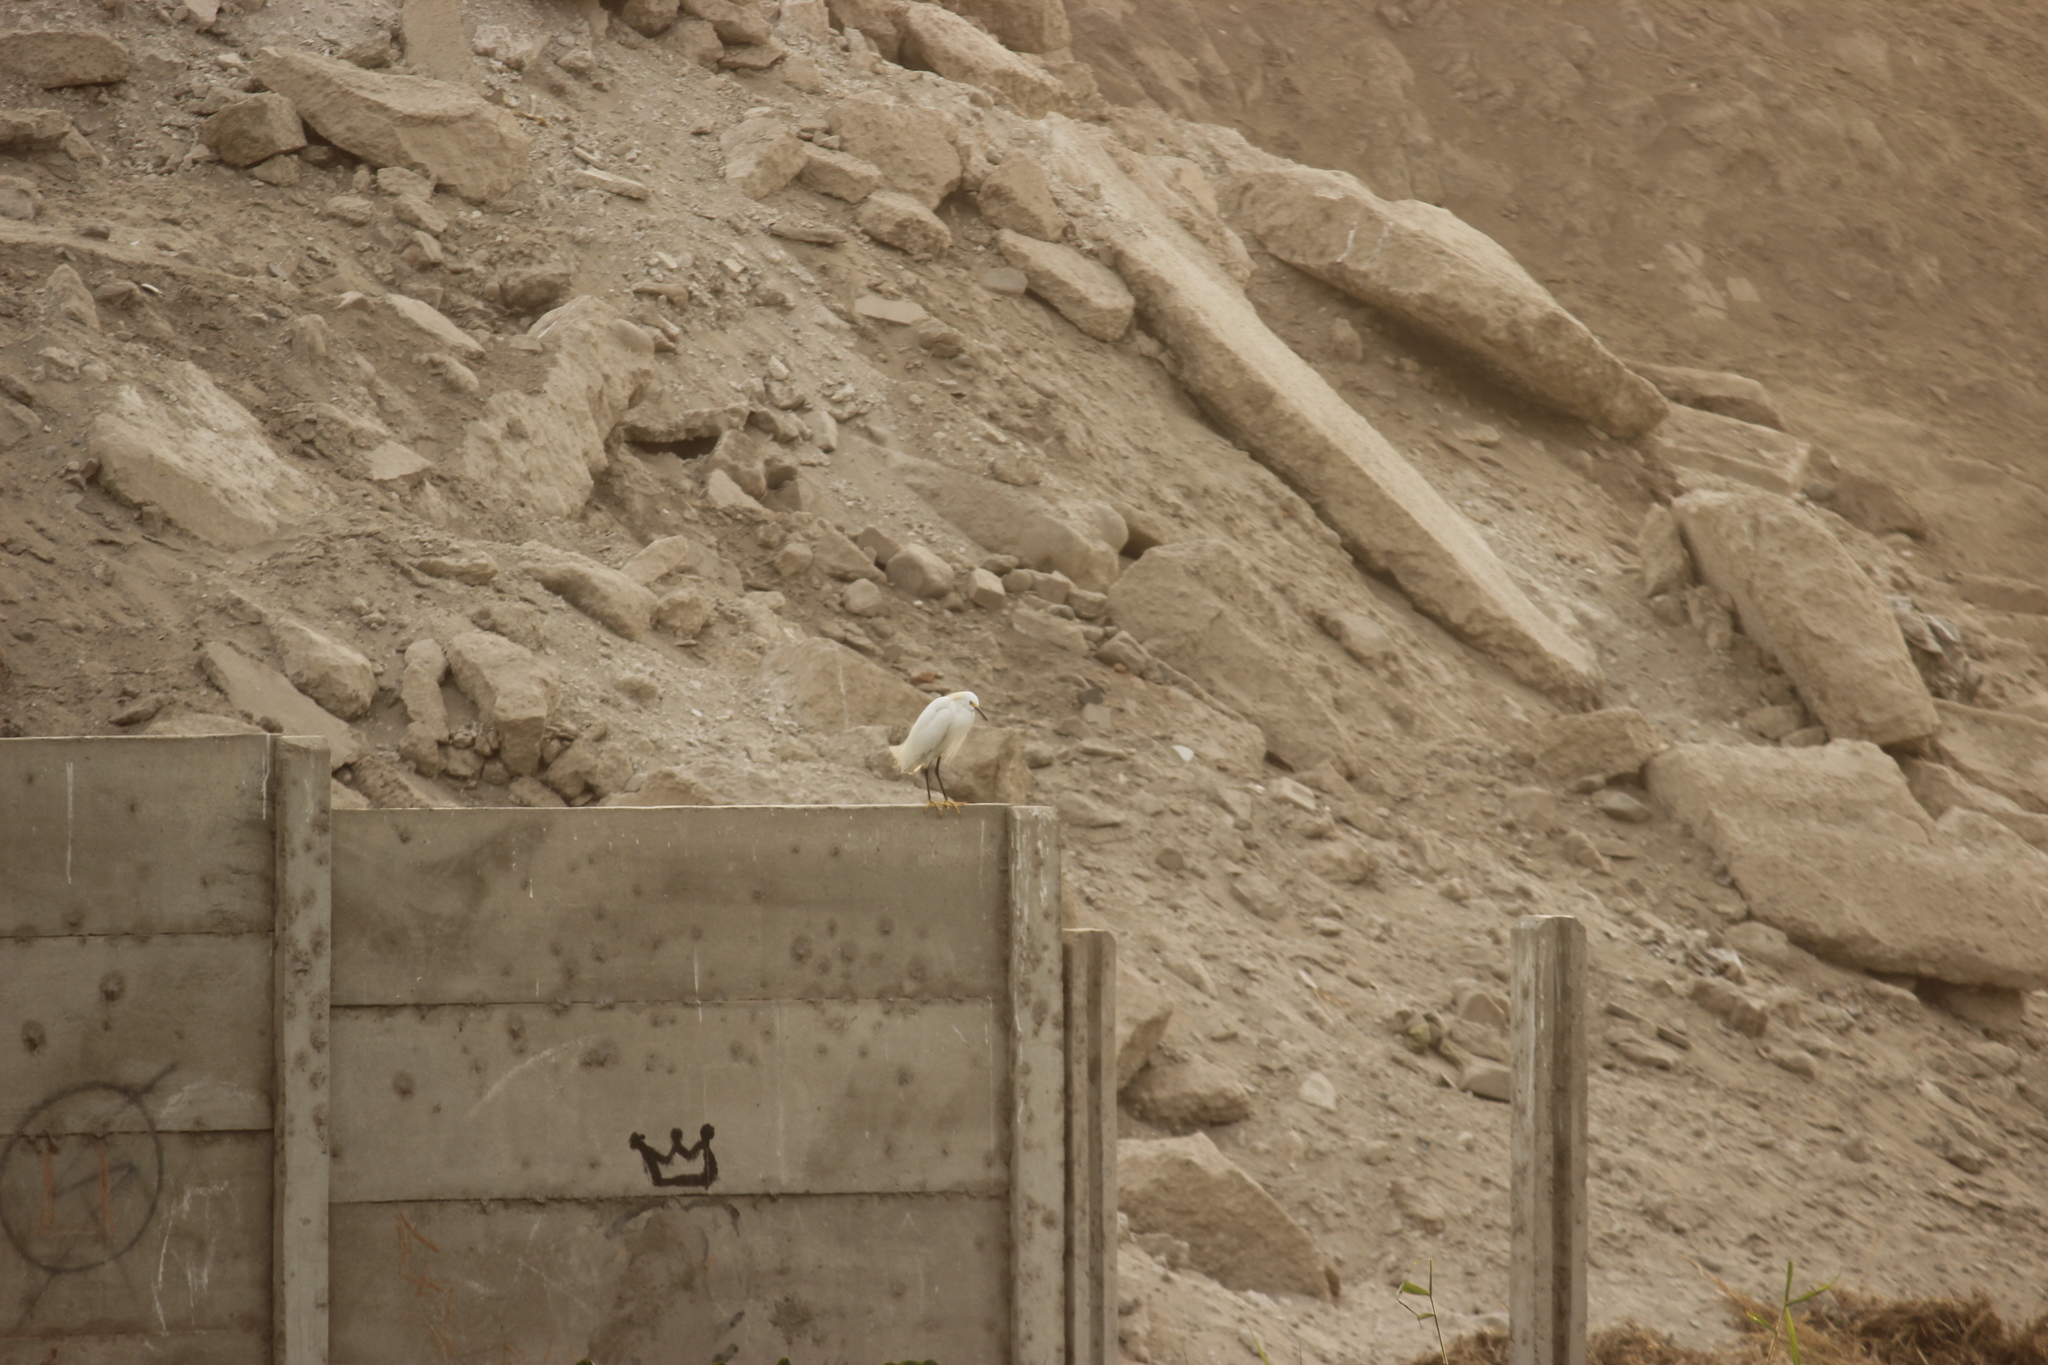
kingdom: Animalia
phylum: Chordata
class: Aves
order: Pelecaniformes
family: Ardeidae
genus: Egretta
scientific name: Egretta thula
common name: Snowy egret
